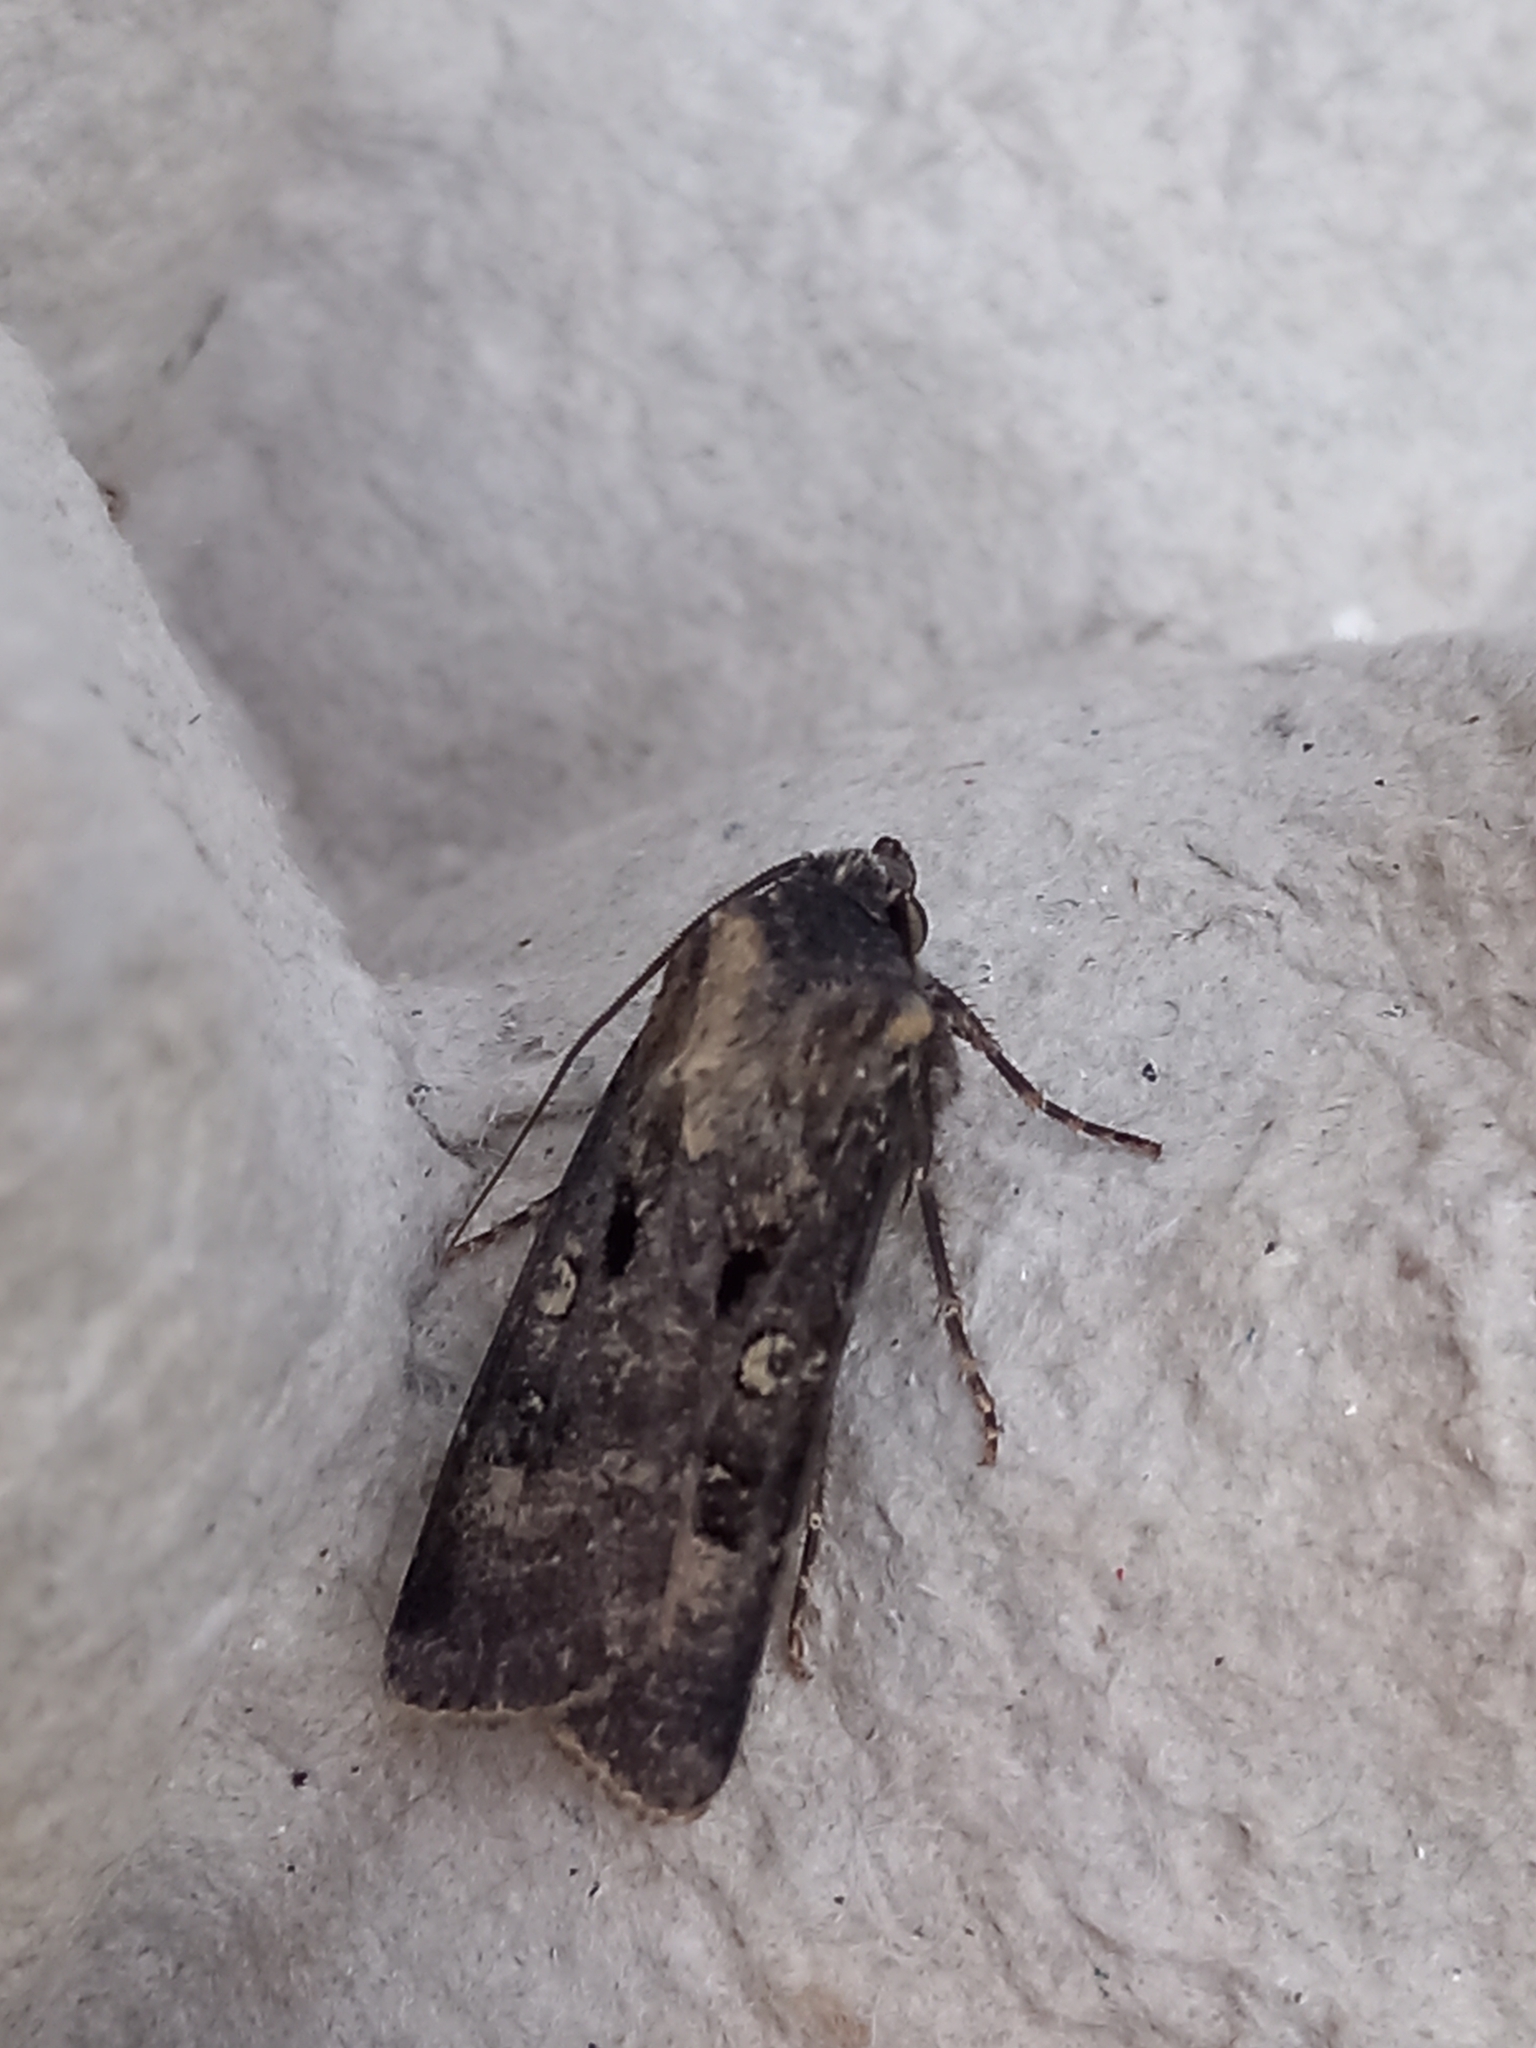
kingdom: Animalia
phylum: Arthropoda
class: Insecta
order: Lepidoptera
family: Noctuidae
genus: Agrotis
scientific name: Agrotis trux
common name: Crescent dart
